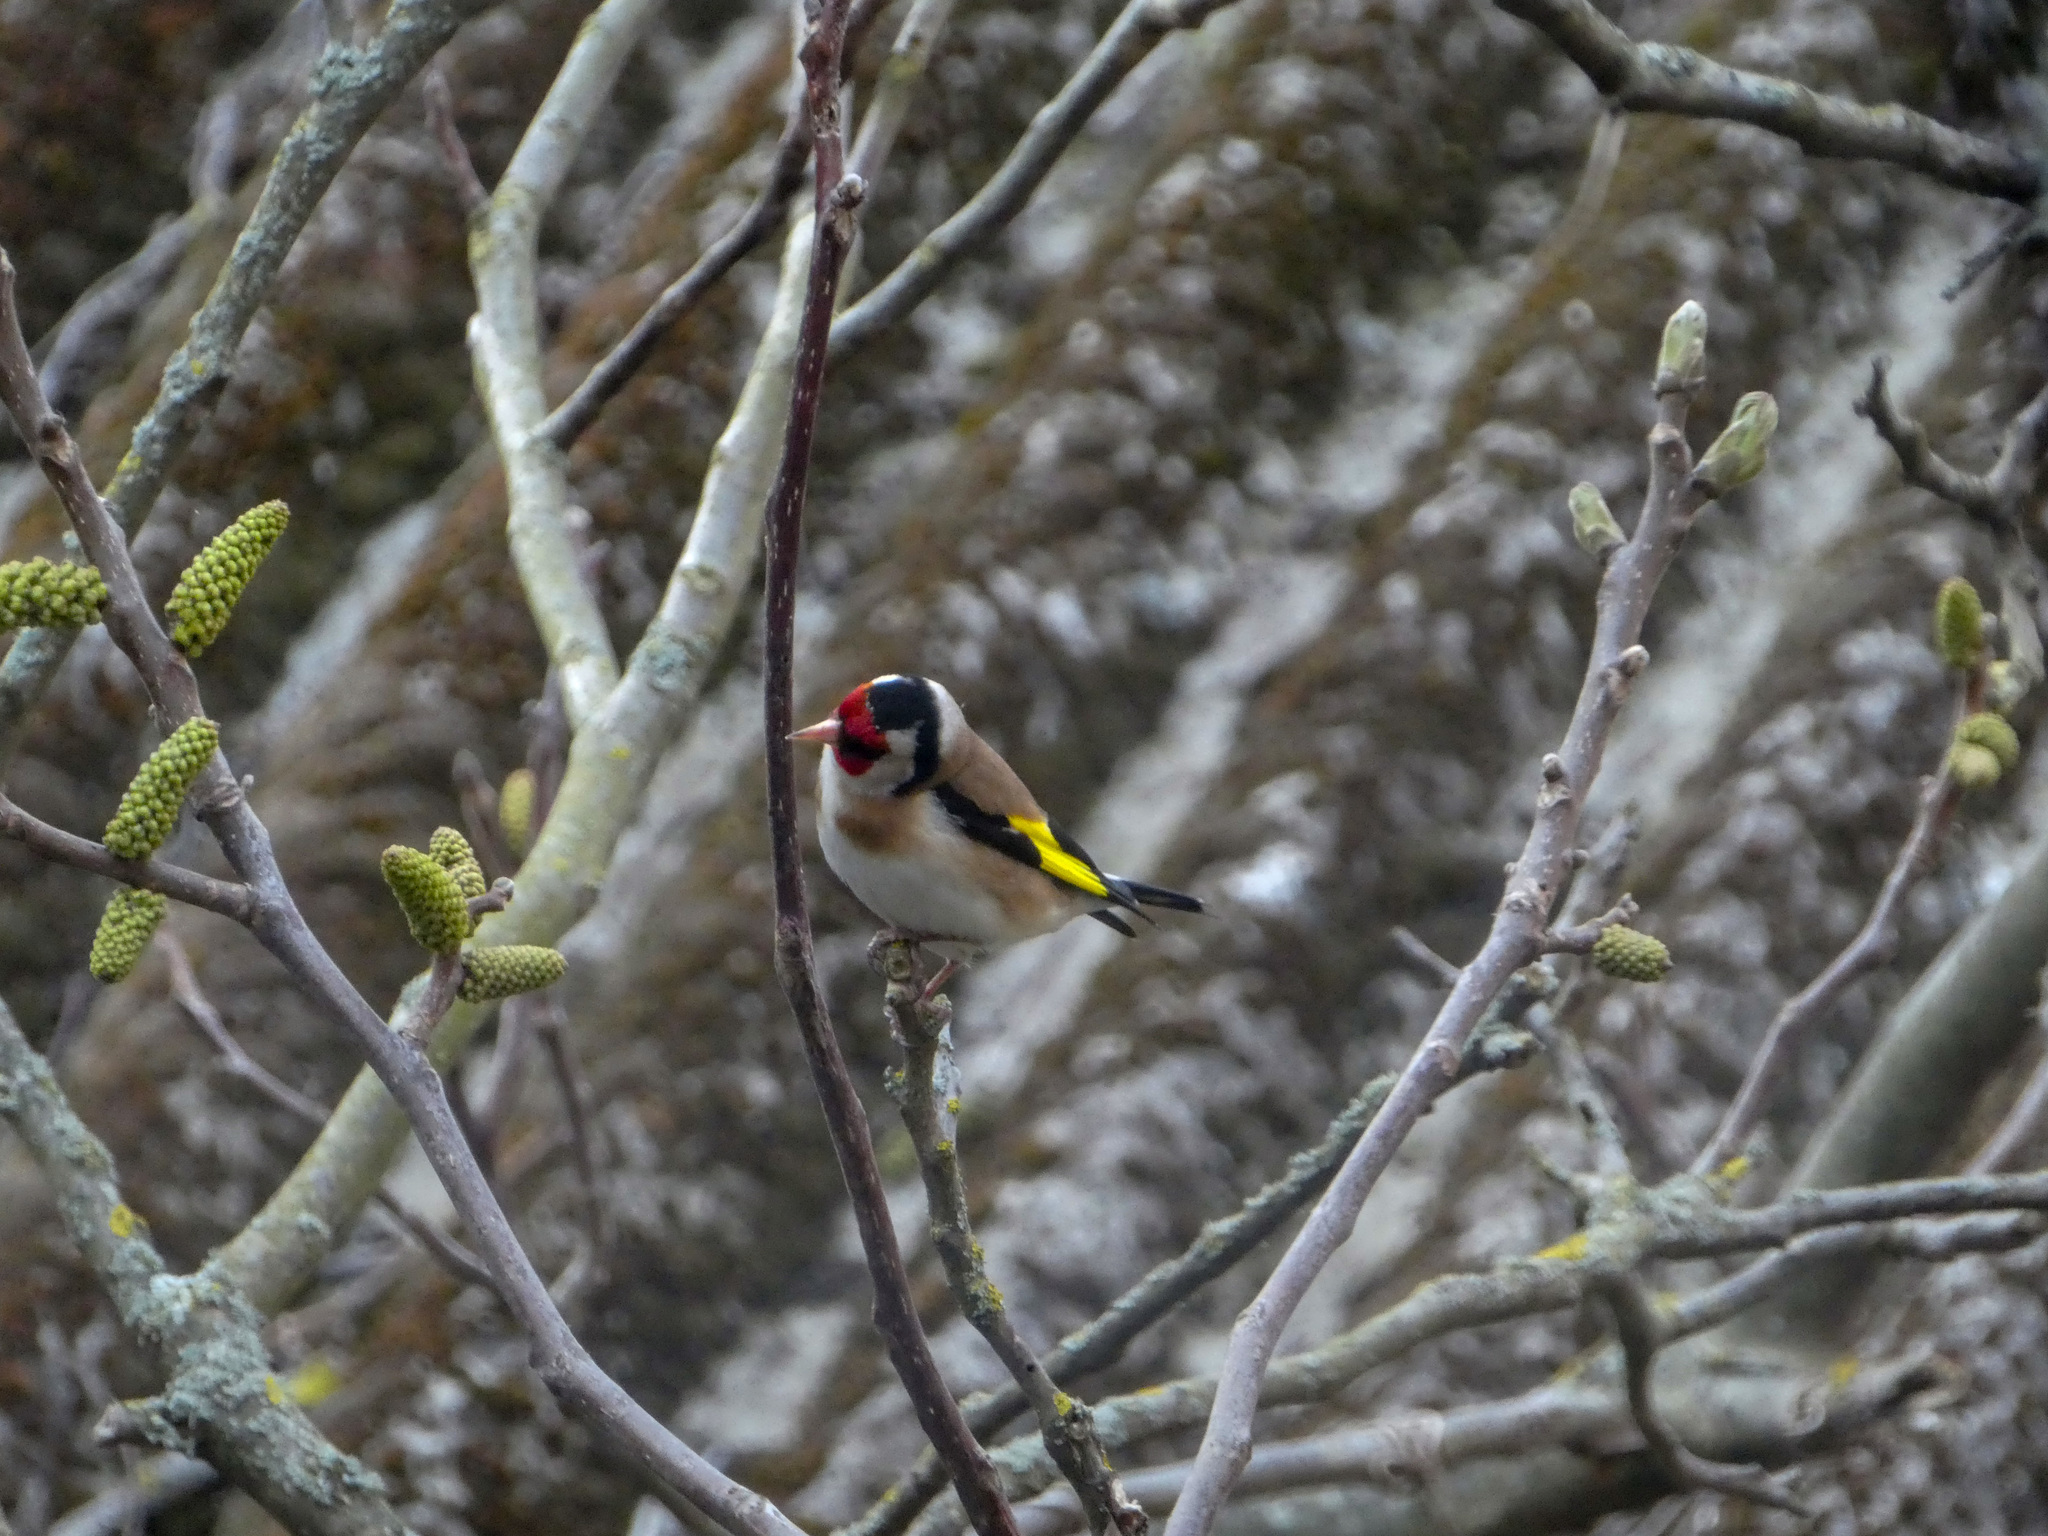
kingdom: Animalia
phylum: Chordata
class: Aves
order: Passeriformes
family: Fringillidae
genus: Carduelis
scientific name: Carduelis carduelis
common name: European goldfinch
